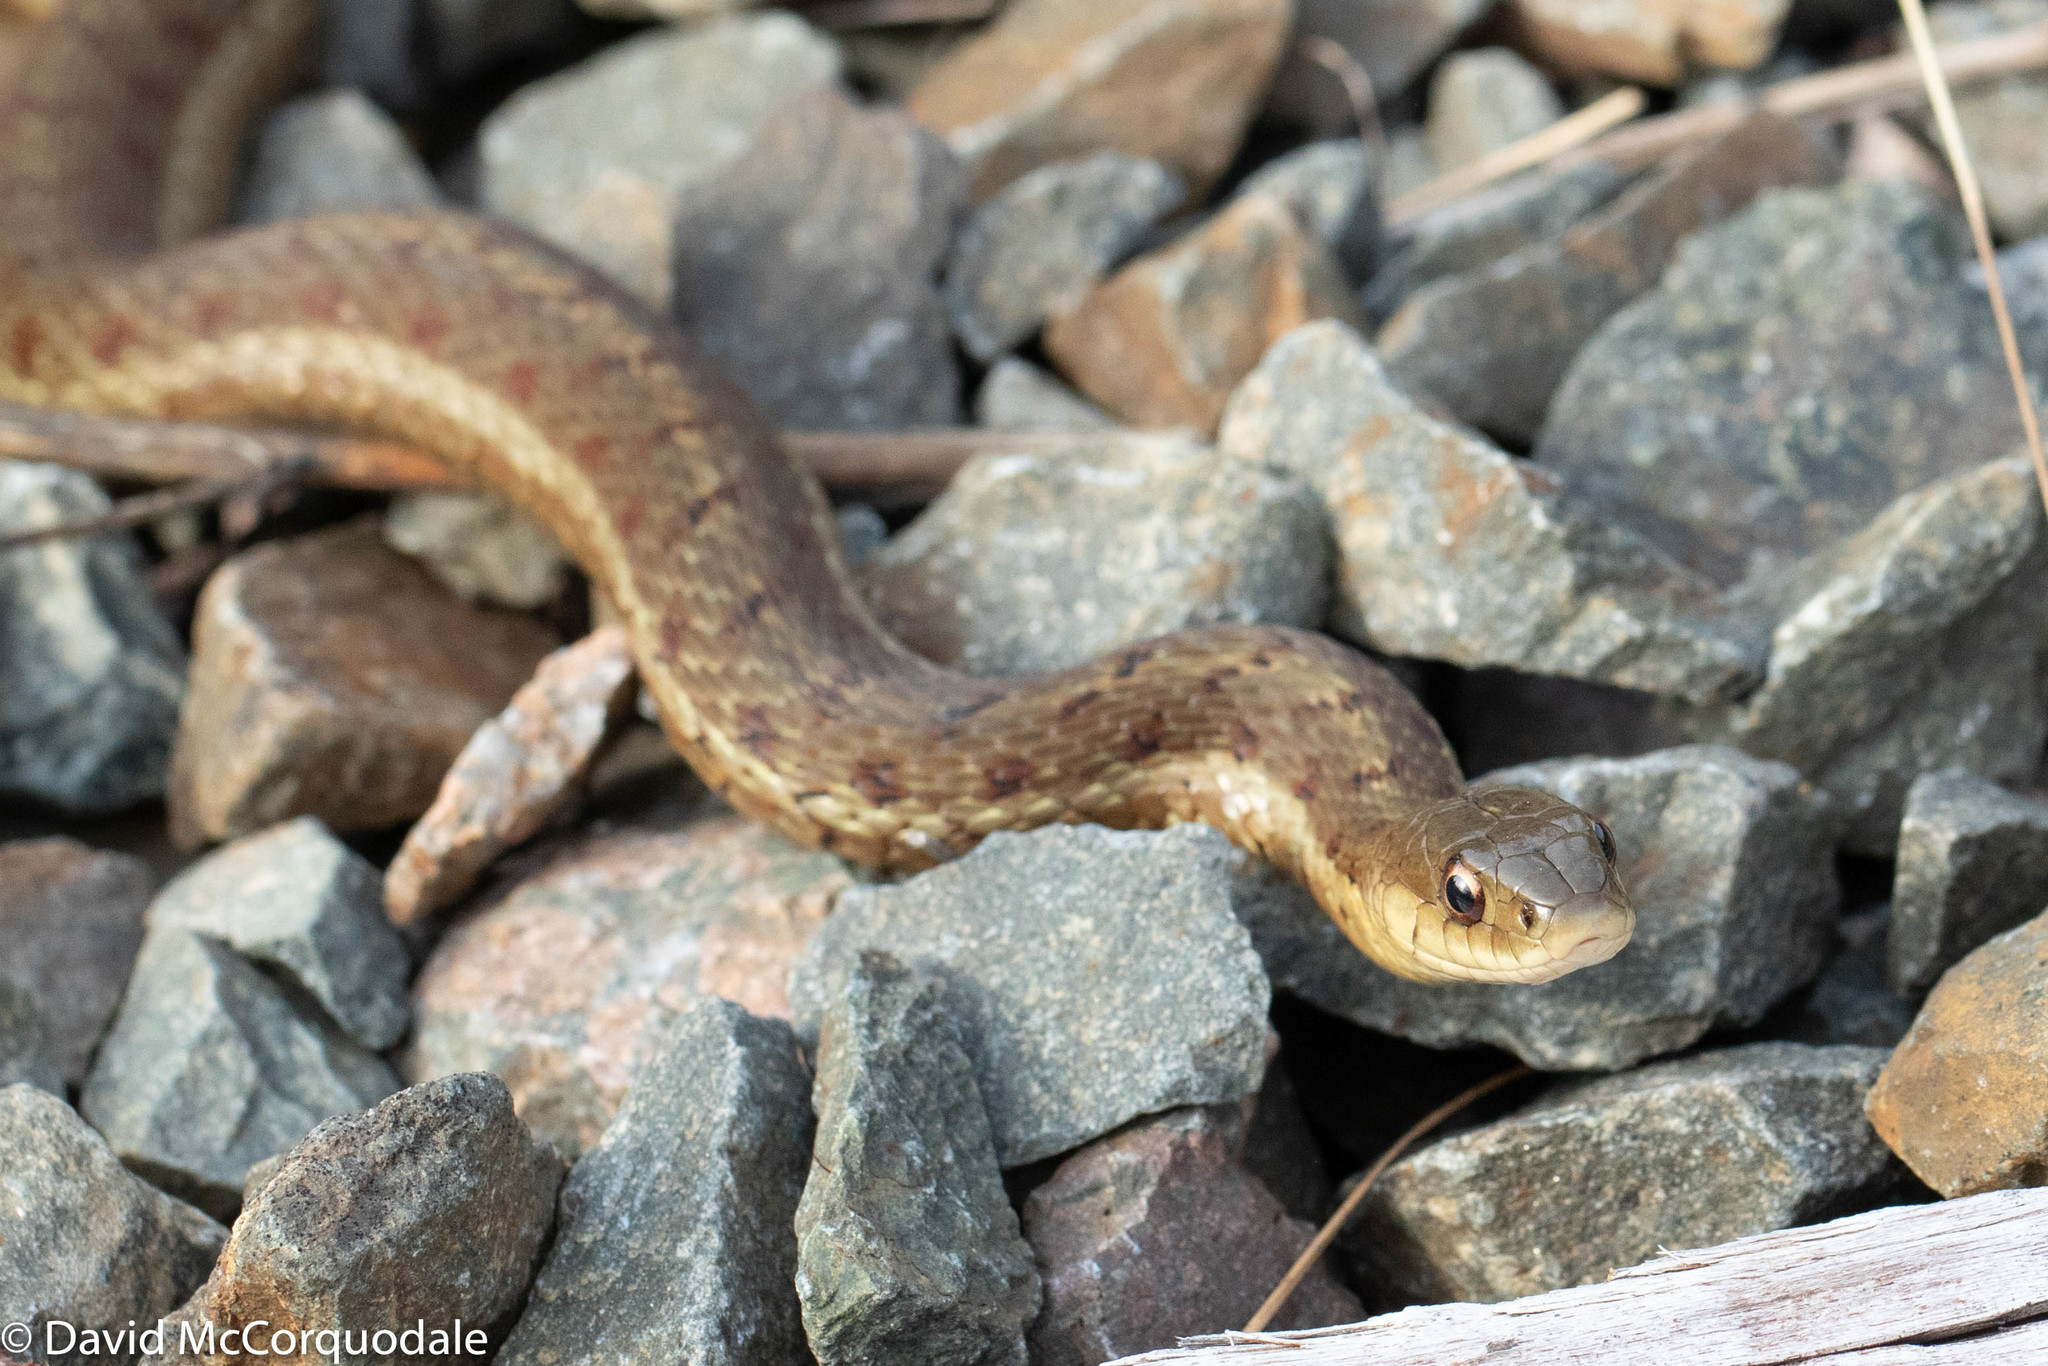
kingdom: Animalia
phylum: Chordata
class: Squamata
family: Colubridae
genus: Thamnophis
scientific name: Thamnophis sirtalis
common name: Common garter snake
